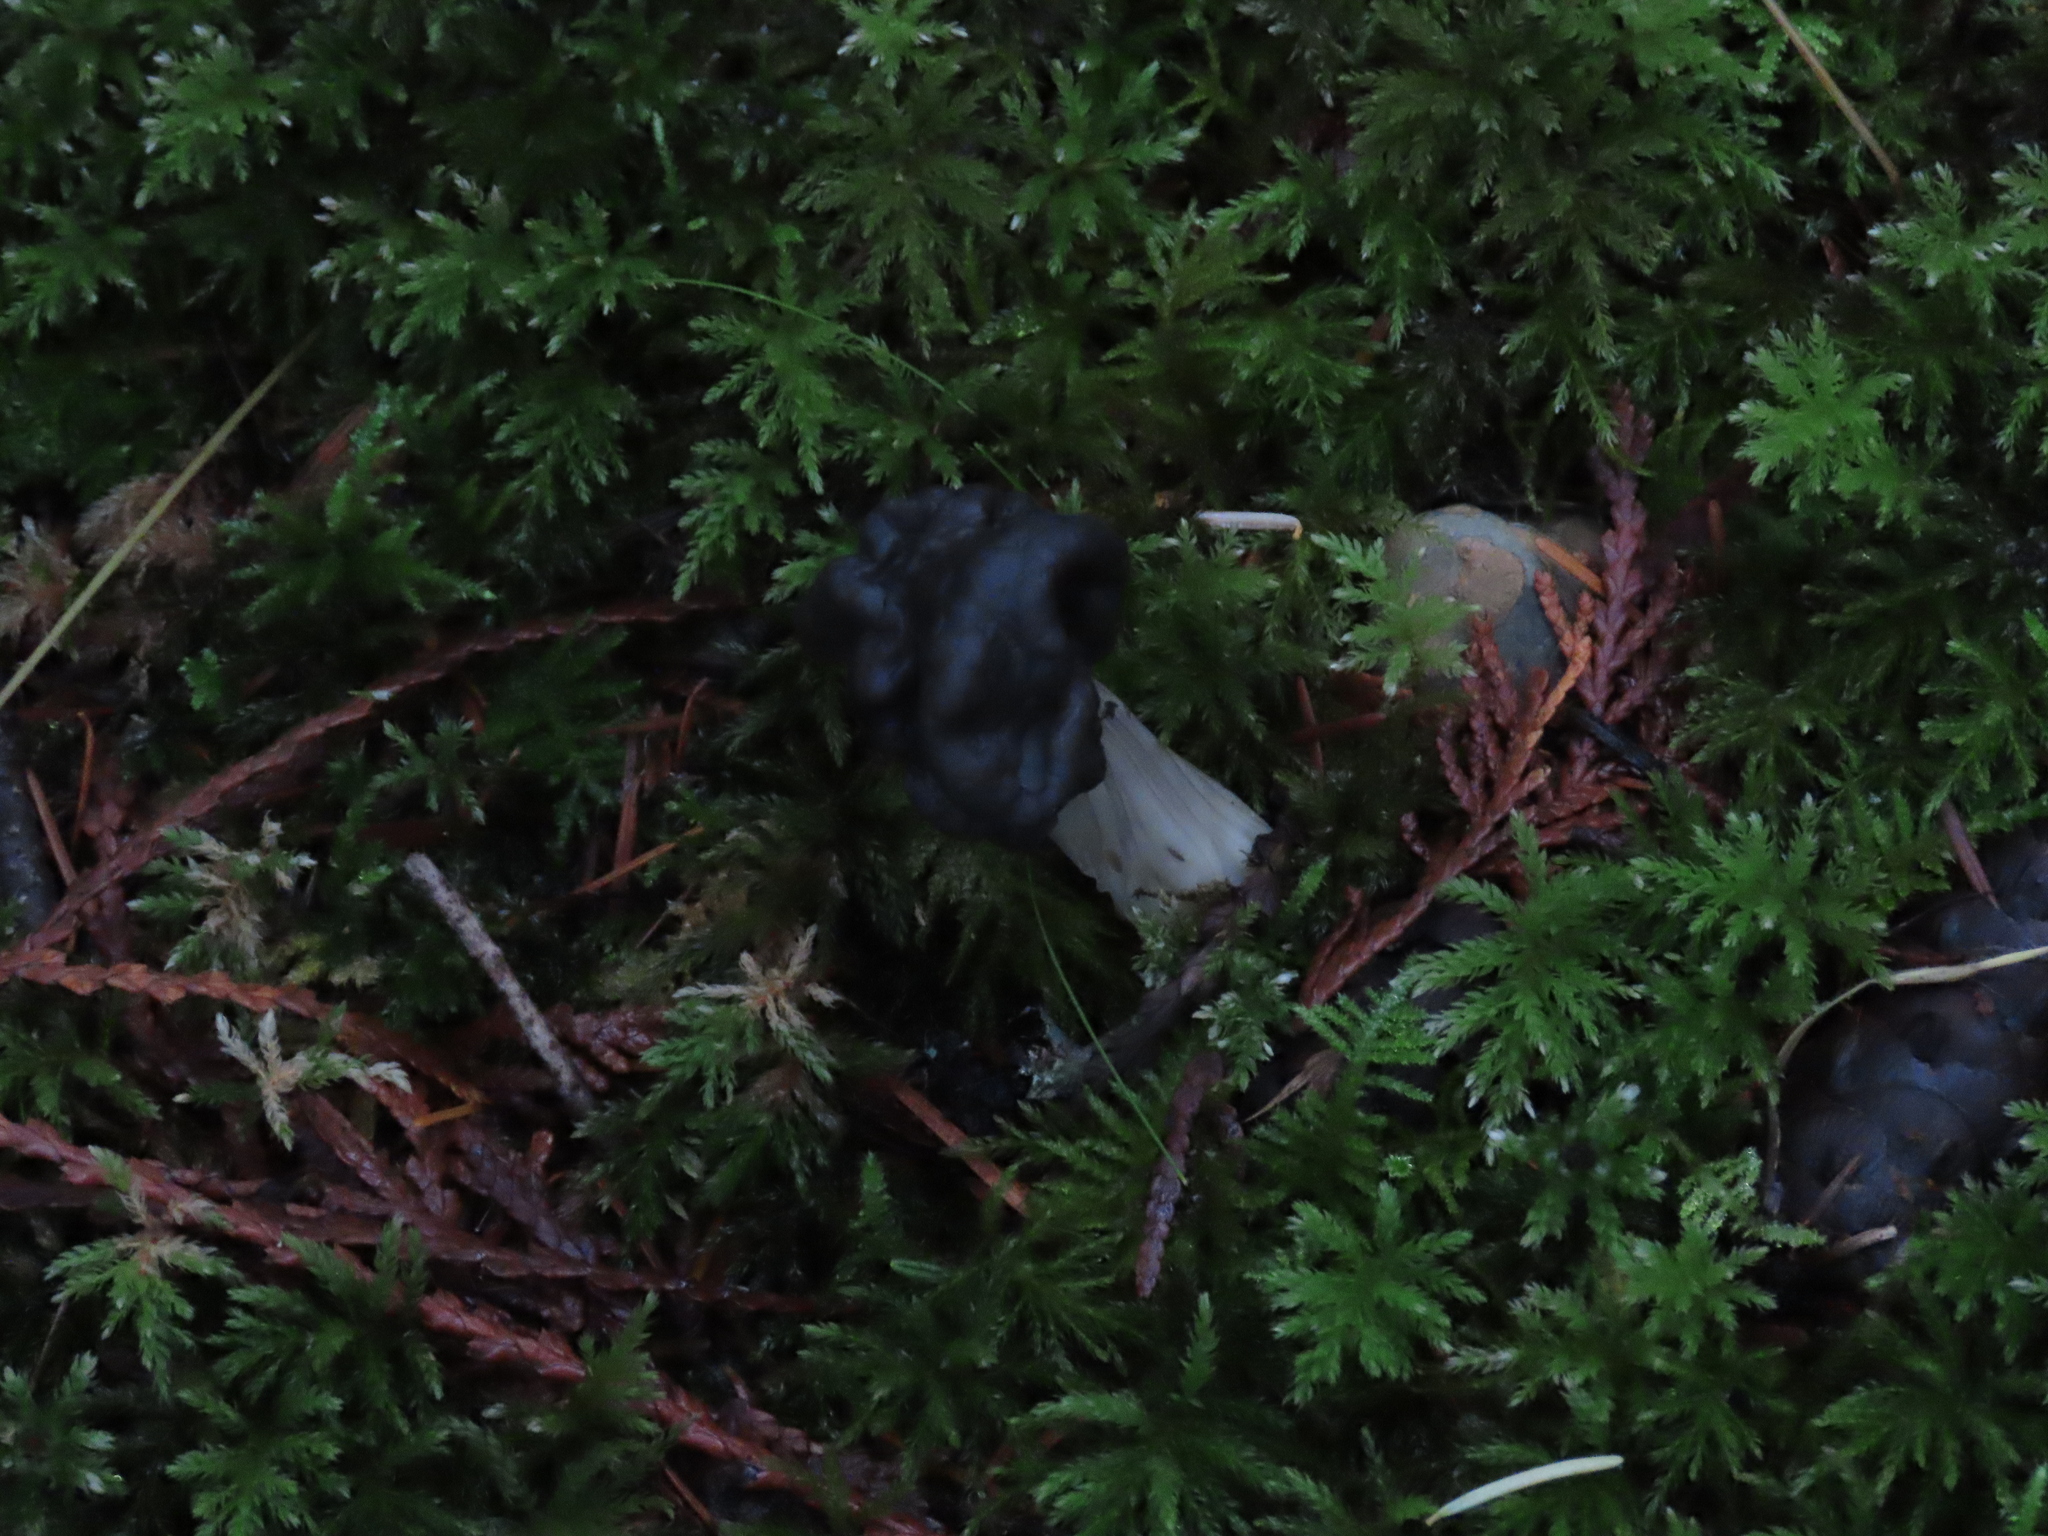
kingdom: Fungi
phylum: Ascomycota
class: Pezizomycetes
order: Pezizales
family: Helvellaceae
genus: Helvella
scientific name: Helvella vespertina
